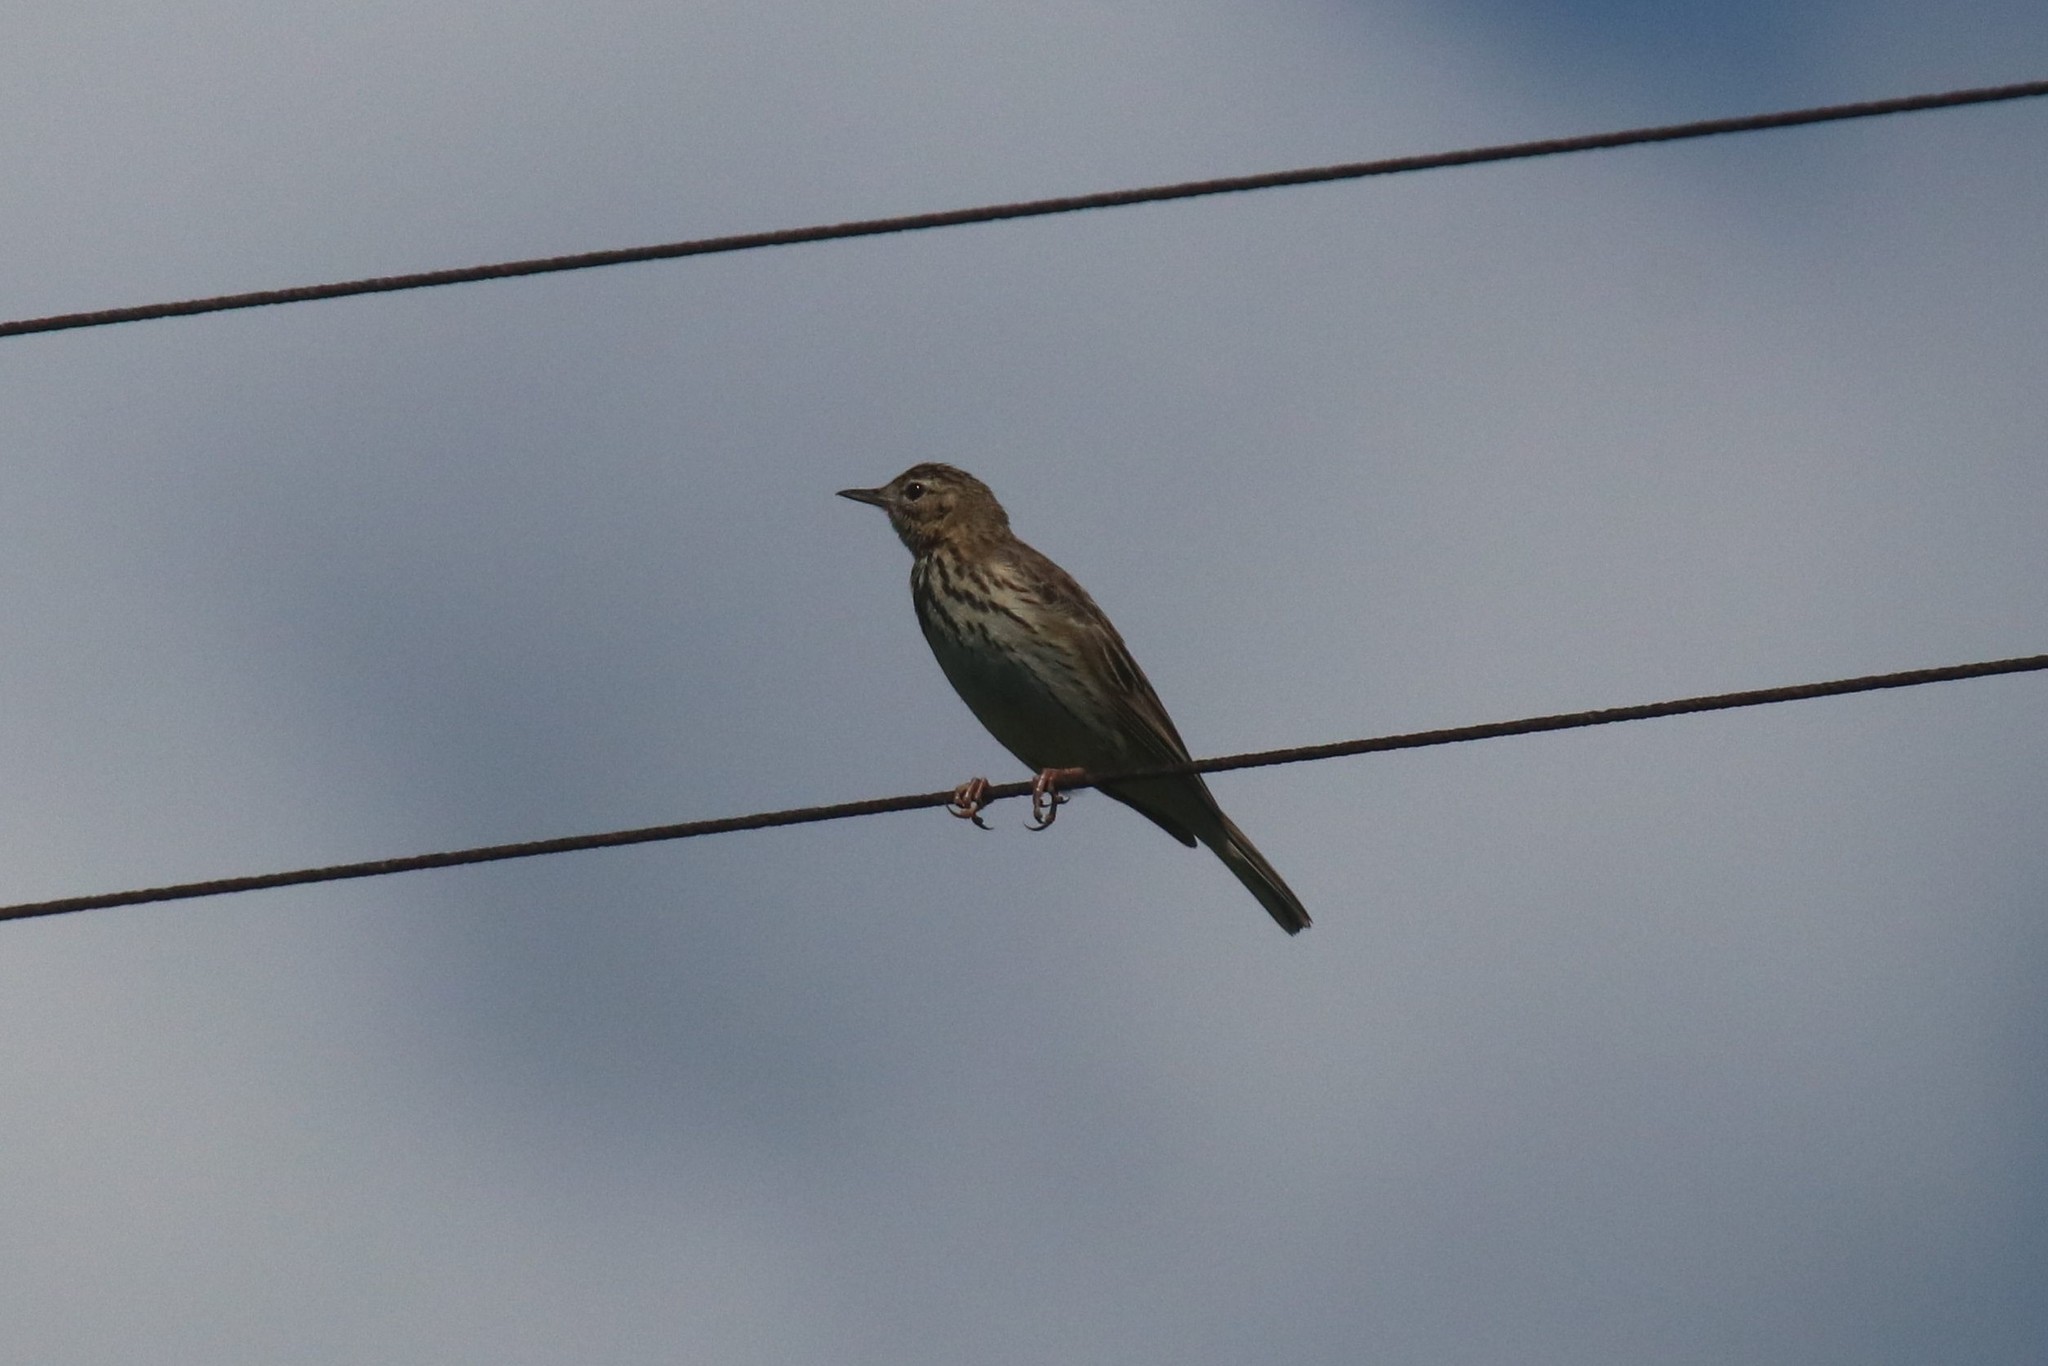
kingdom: Animalia
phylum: Chordata
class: Aves
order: Passeriformes
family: Motacillidae
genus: Anthus
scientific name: Anthus trivialis
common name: Tree pipit
